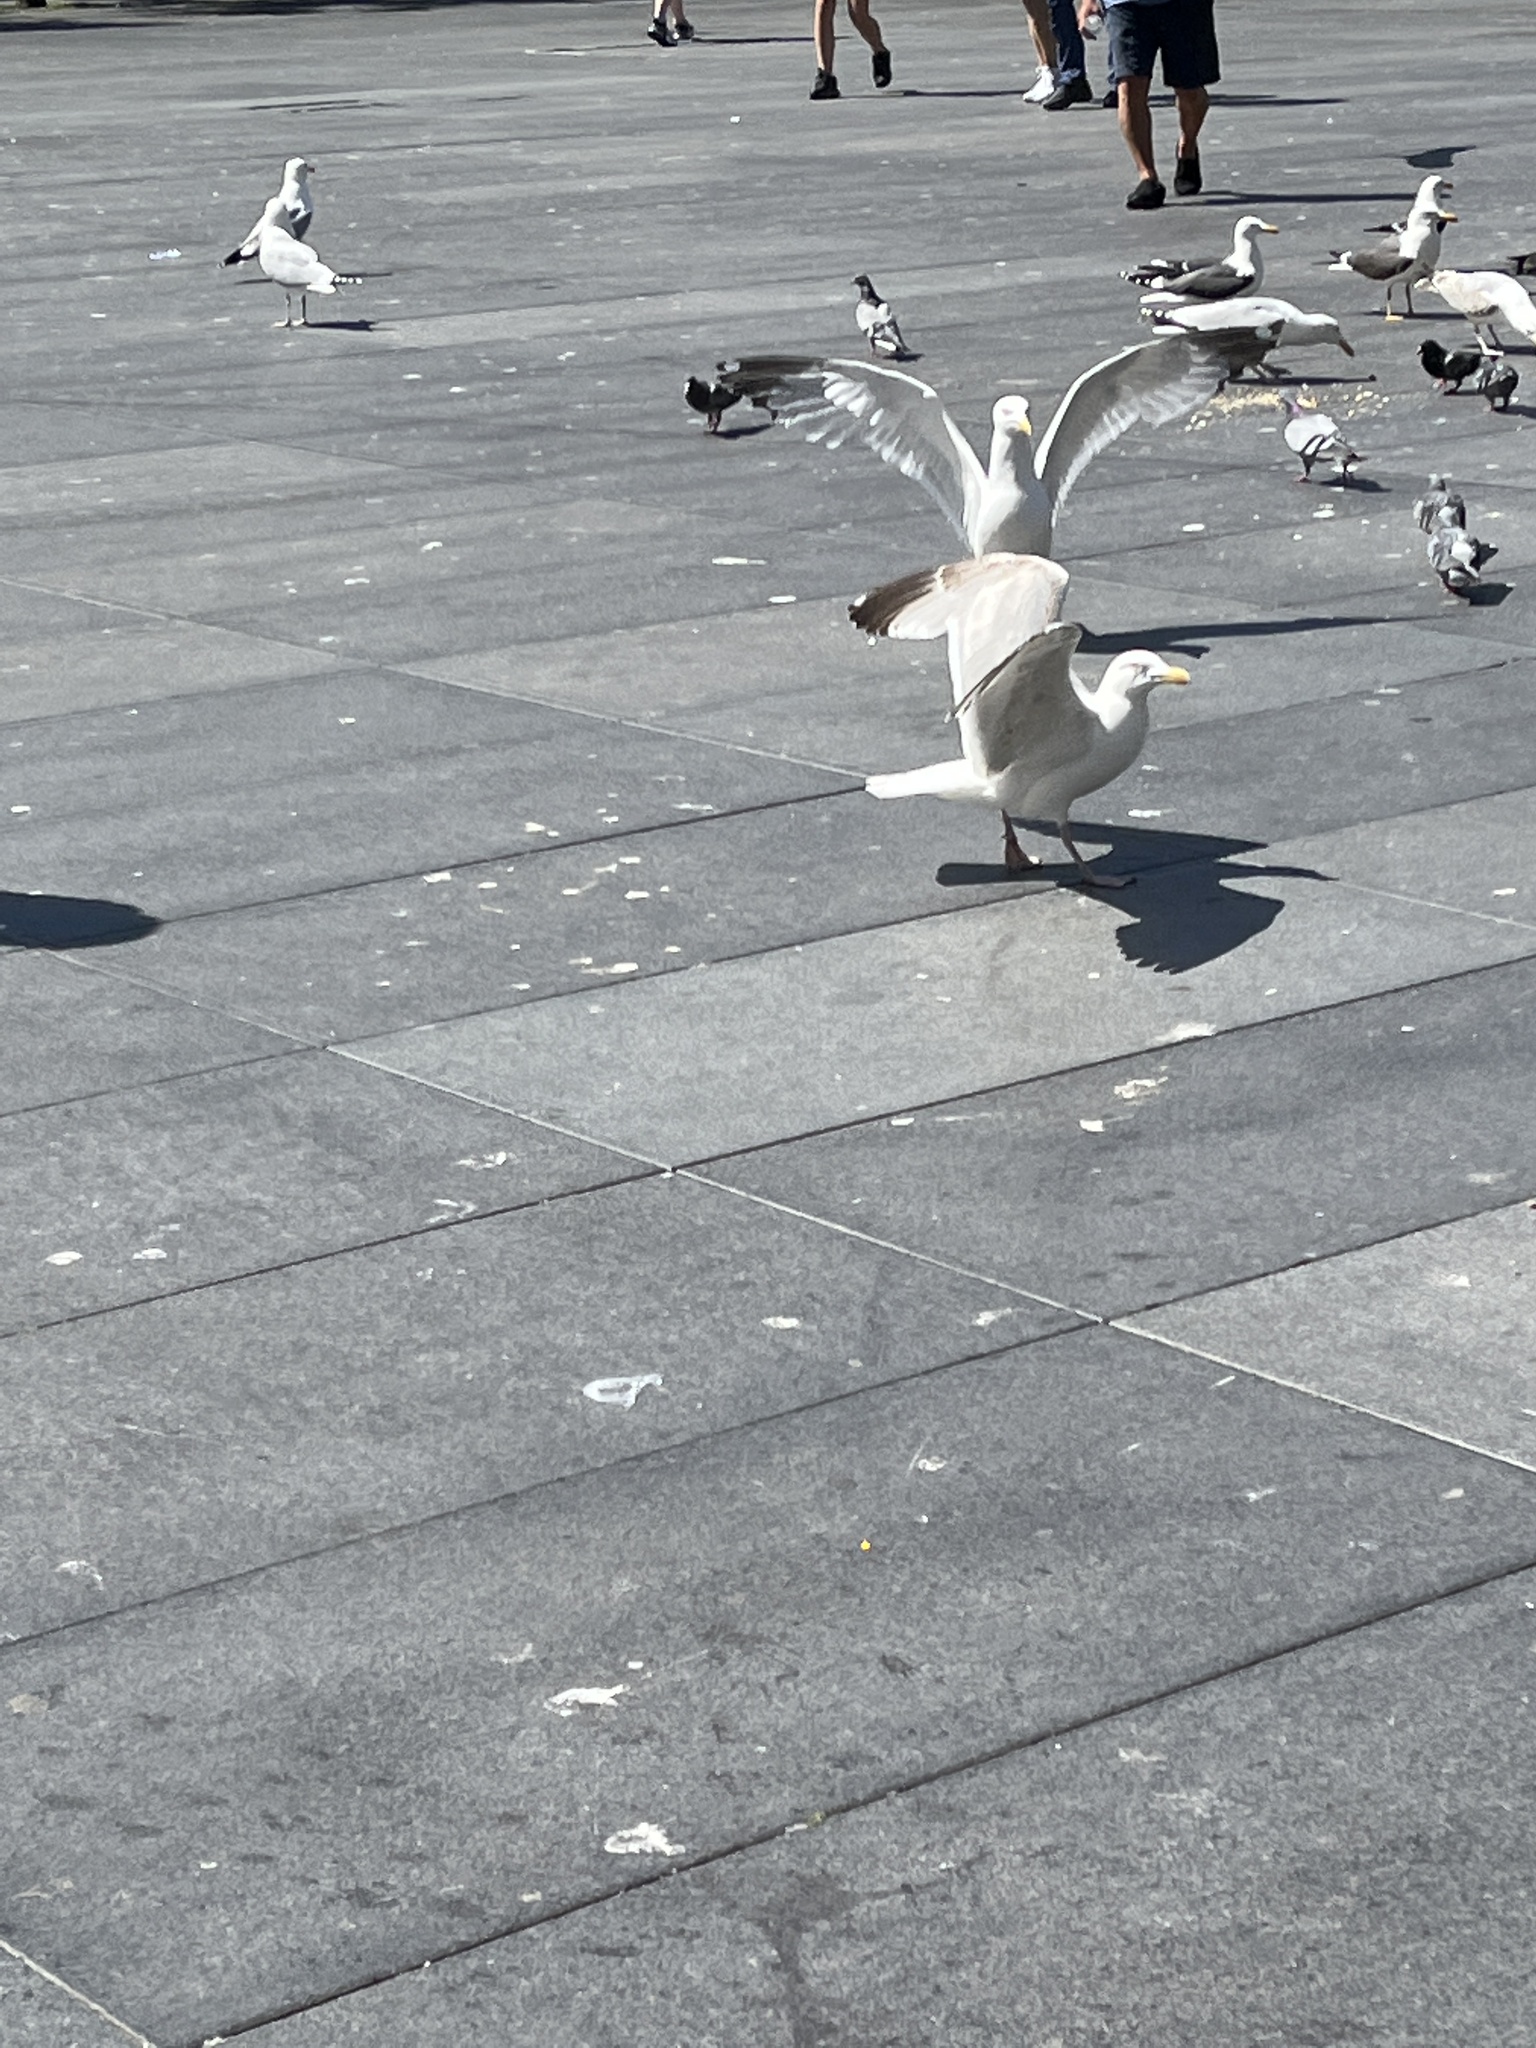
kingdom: Animalia
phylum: Chordata
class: Aves
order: Charadriiformes
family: Laridae
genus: Larus
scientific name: Larus argentatus
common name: Herring gull
